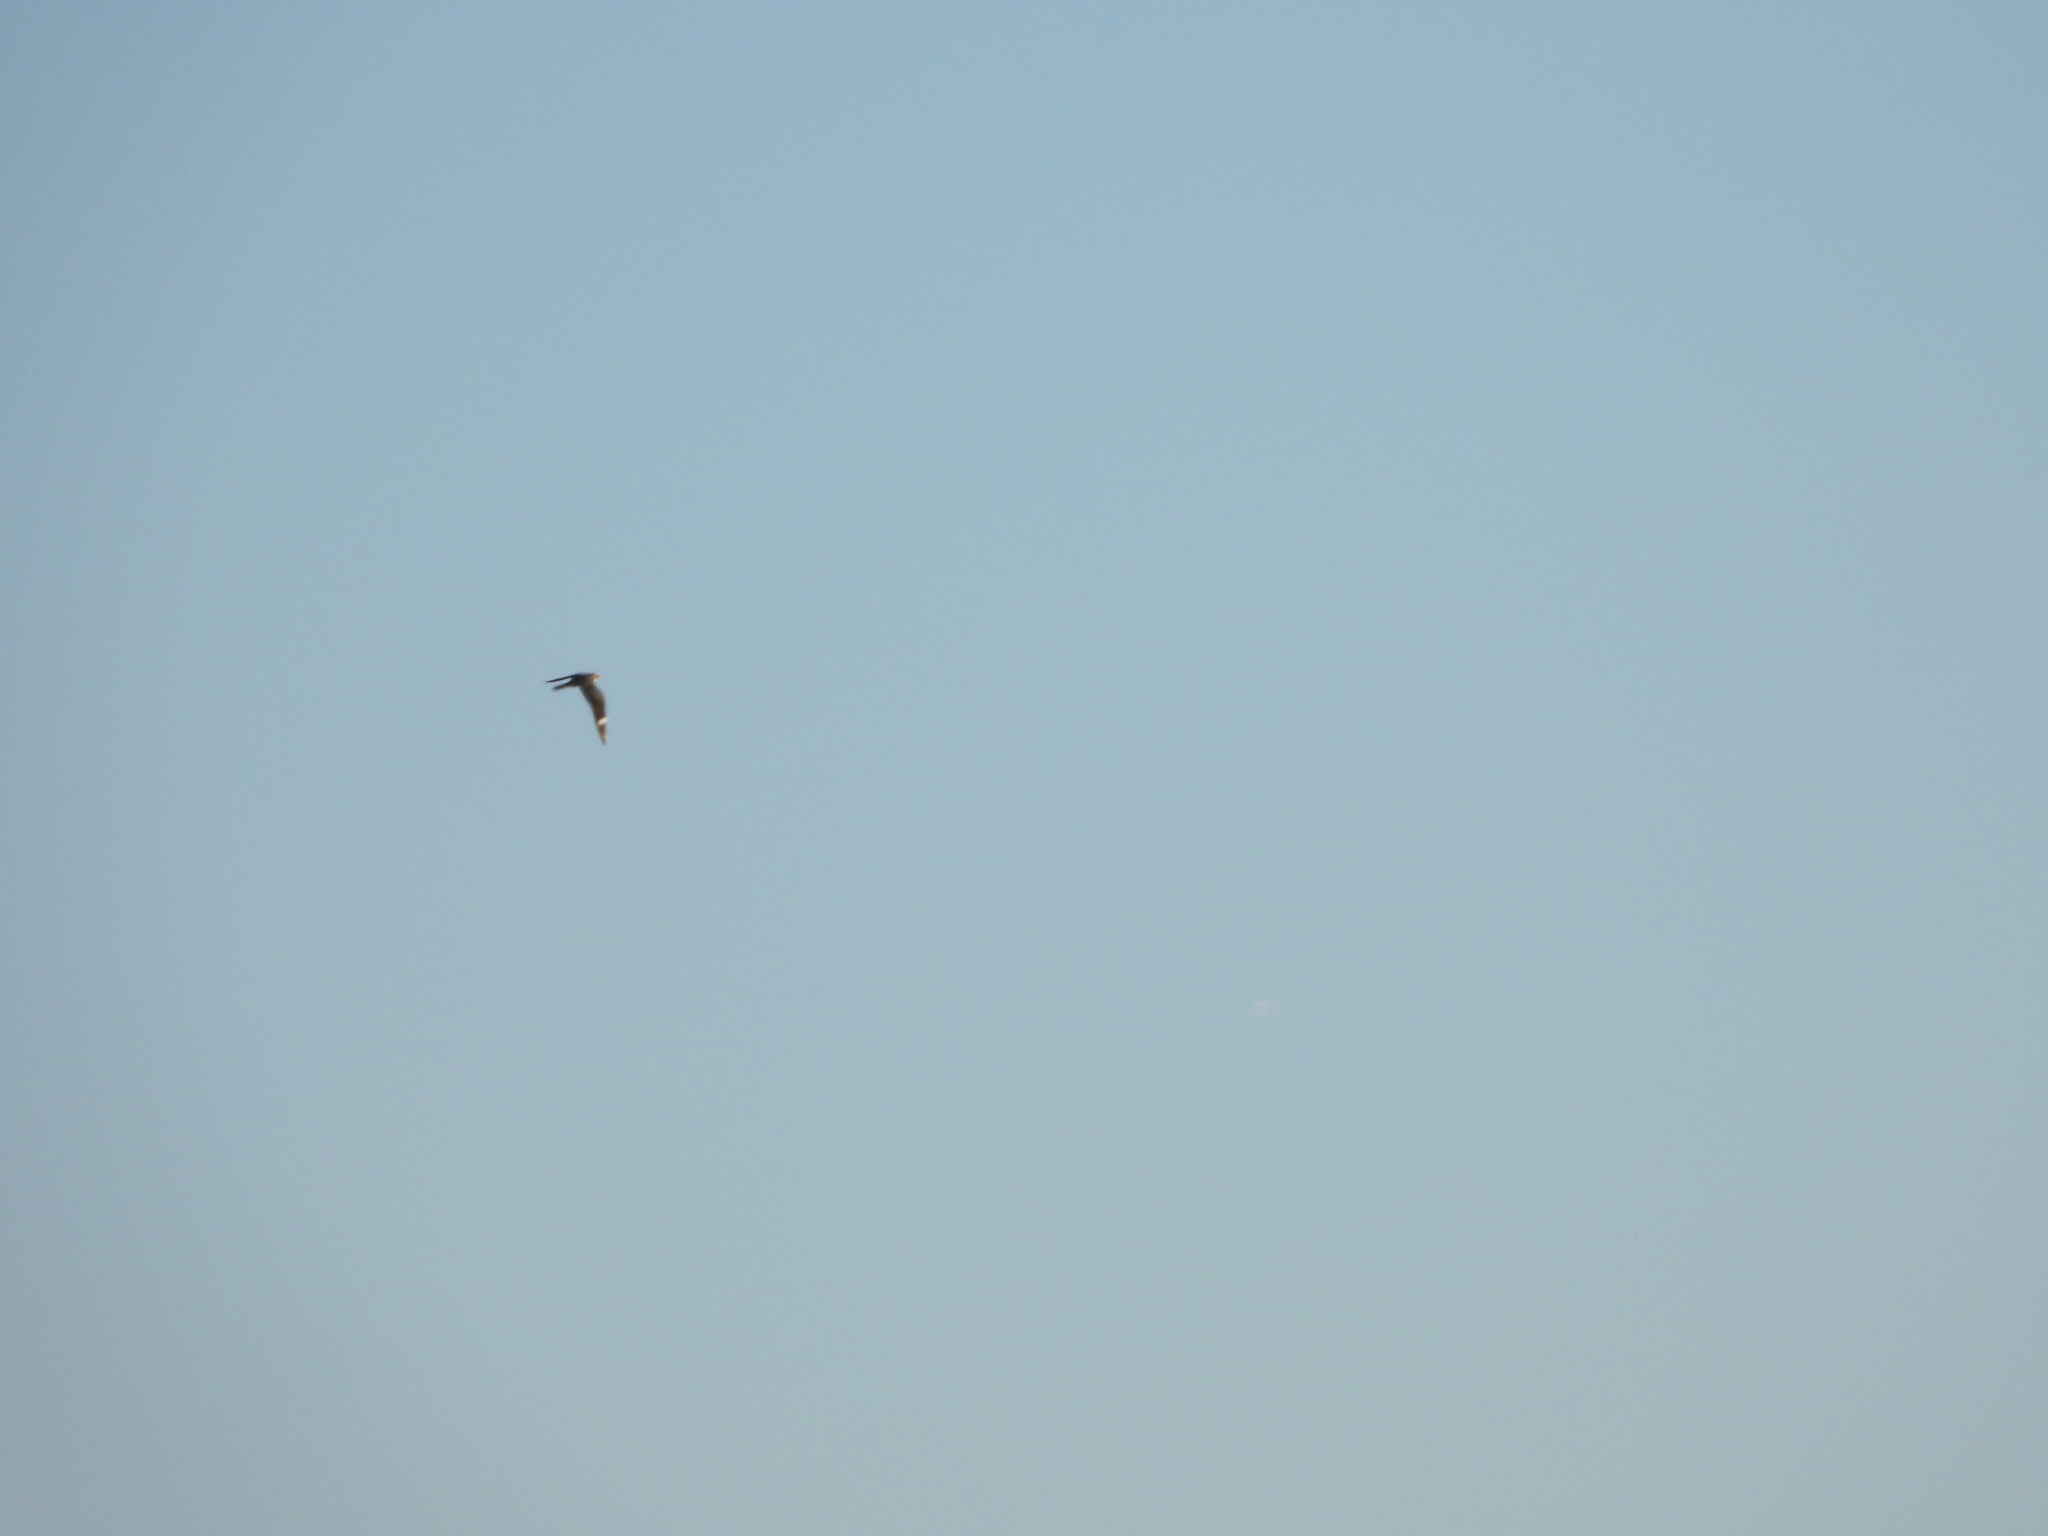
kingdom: Animalia
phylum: Chordata
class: Aves
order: Caprimulgiformes
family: Caprimulgidae
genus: Chordeiles
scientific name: Chordeiles minor
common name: Common nighthawk
